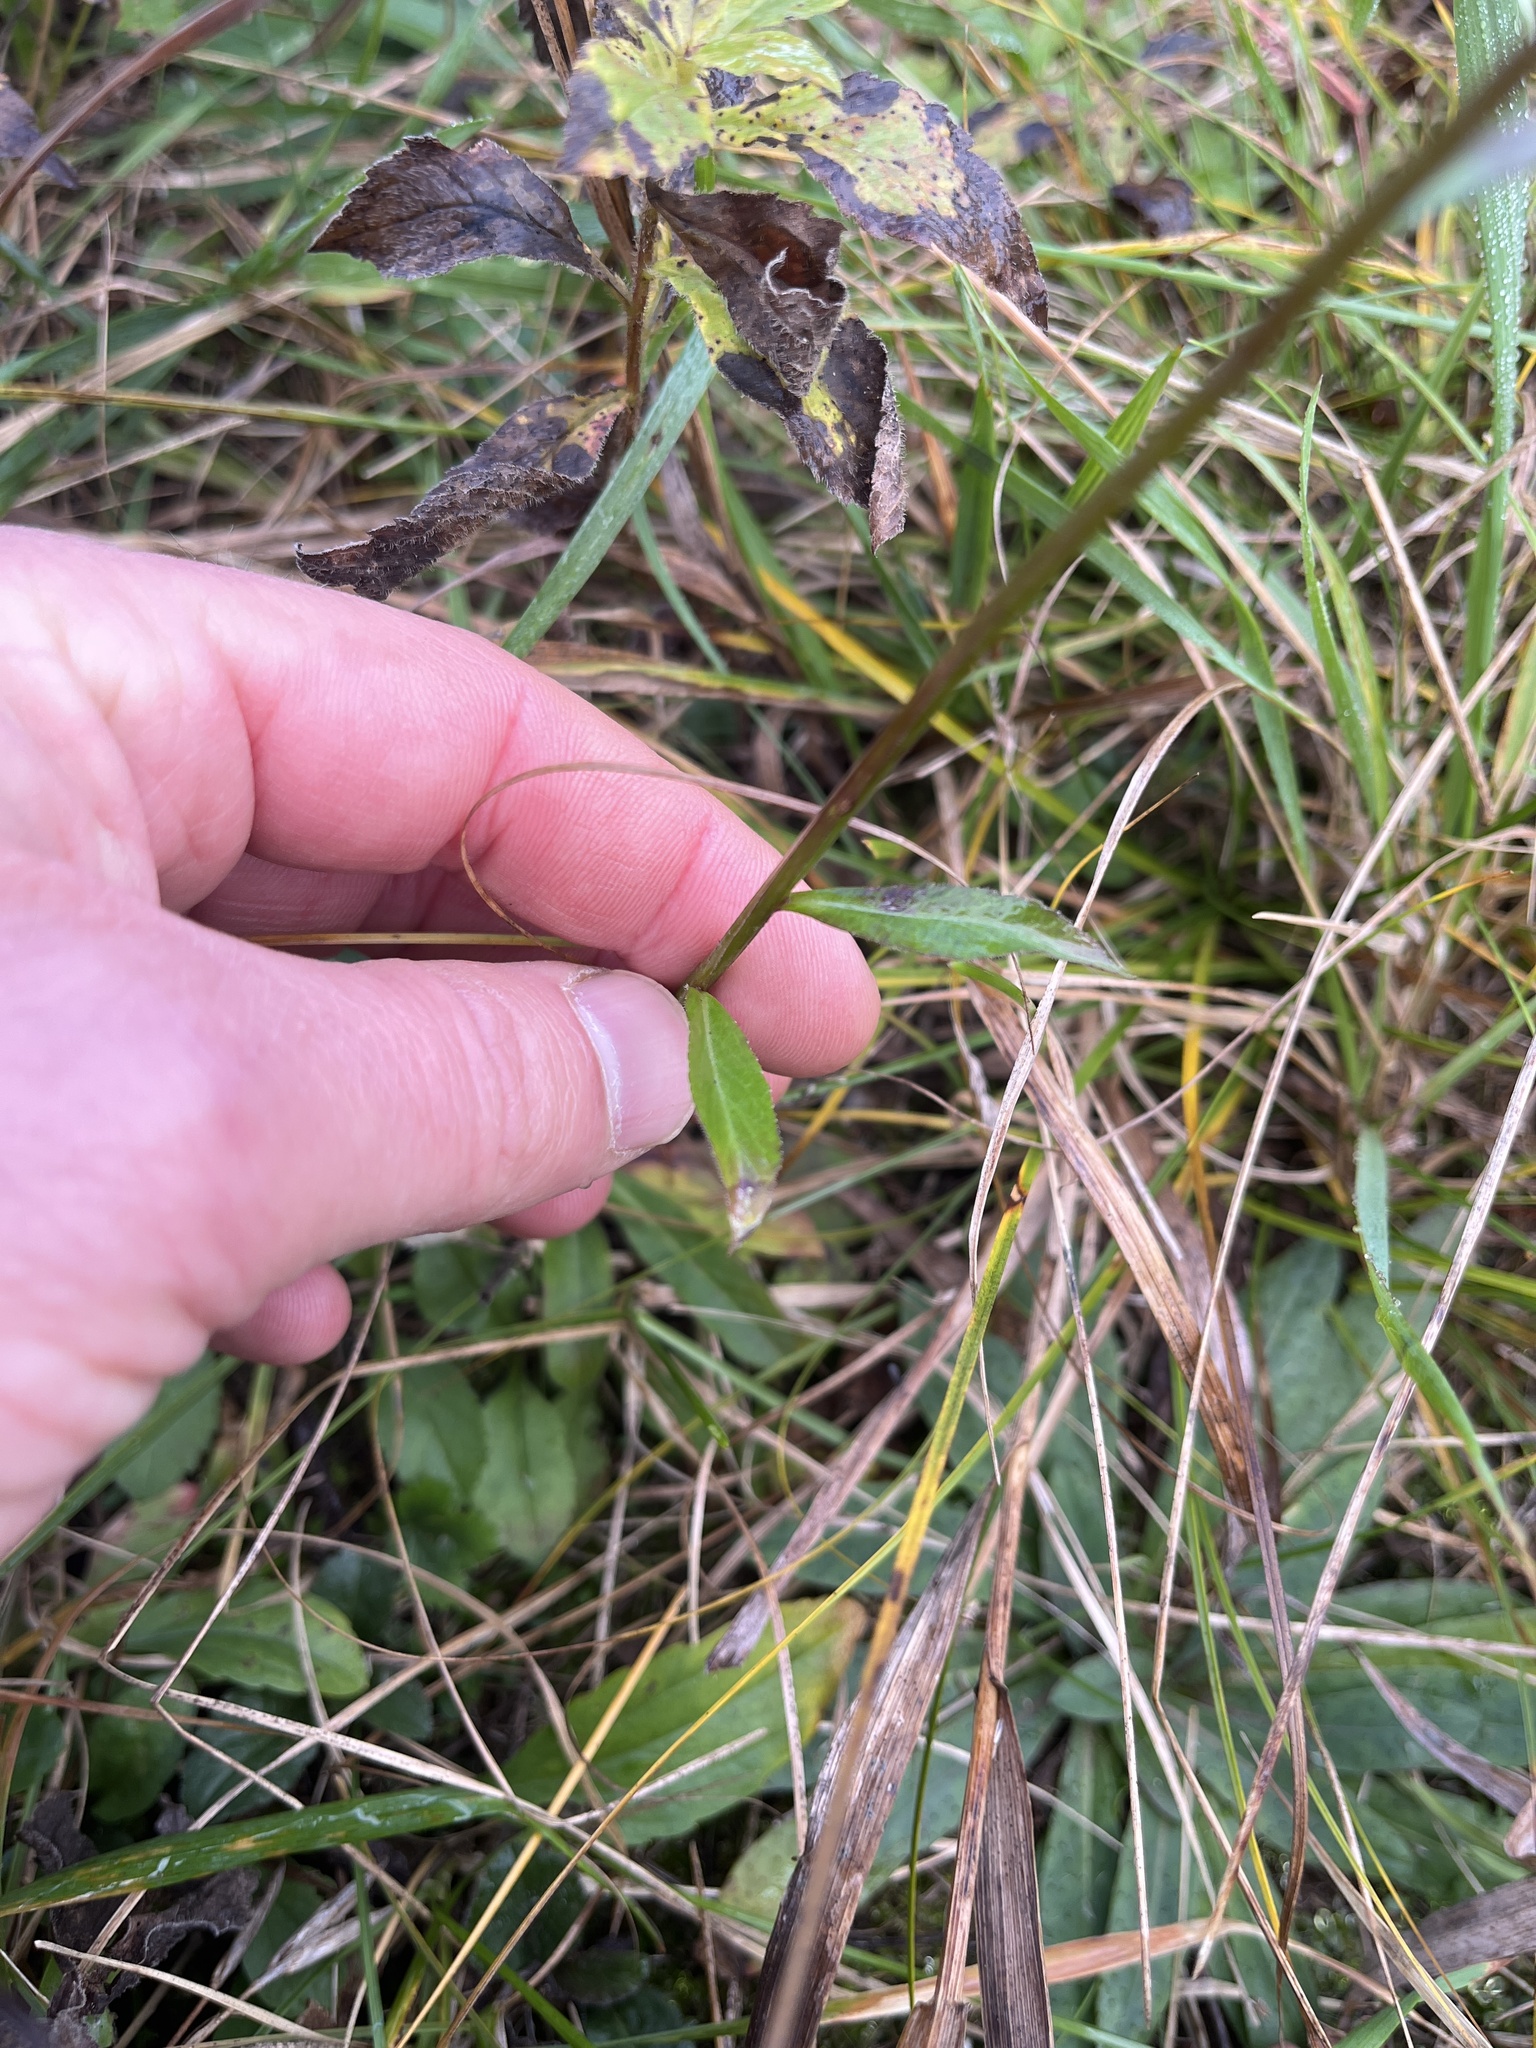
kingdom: Plantae
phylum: Tracheophyta
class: Magnoliopsida
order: Asterales
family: Campanulaceae
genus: Lobelia
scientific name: Lobelia spicata
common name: Pale-spike lobelia
